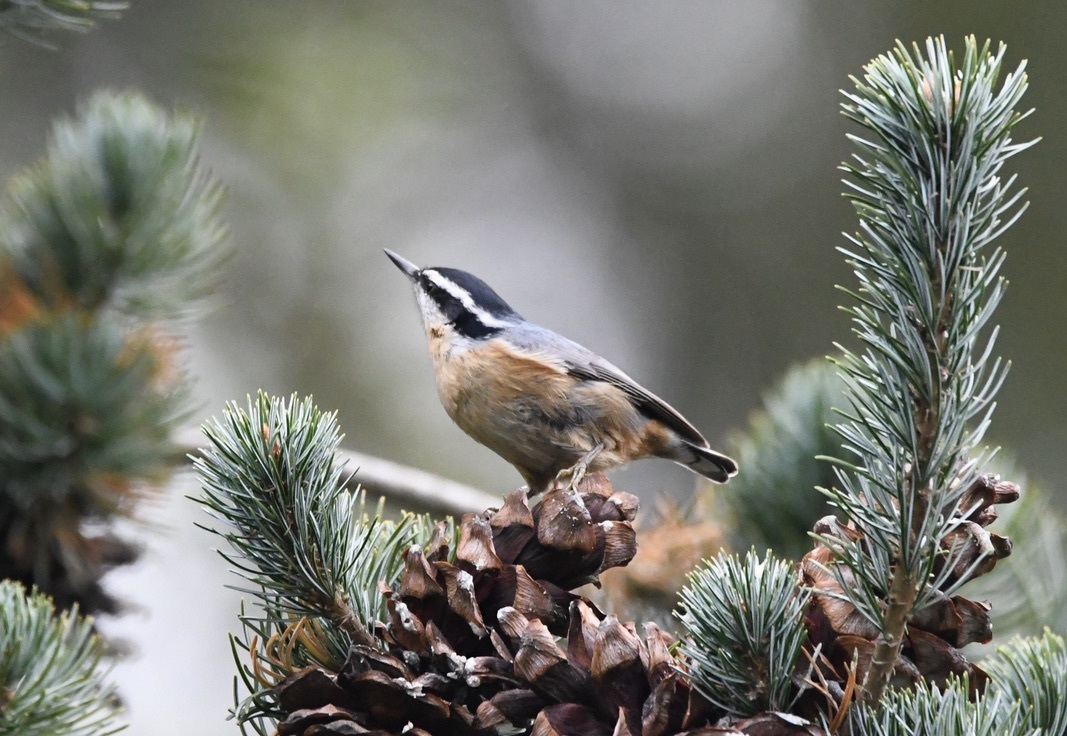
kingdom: Animalia
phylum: Chordata
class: Aves
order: Passeriformes
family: Sittidae
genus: Sitta
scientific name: Sitta canadensis
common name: Red-breasted nuthatch
